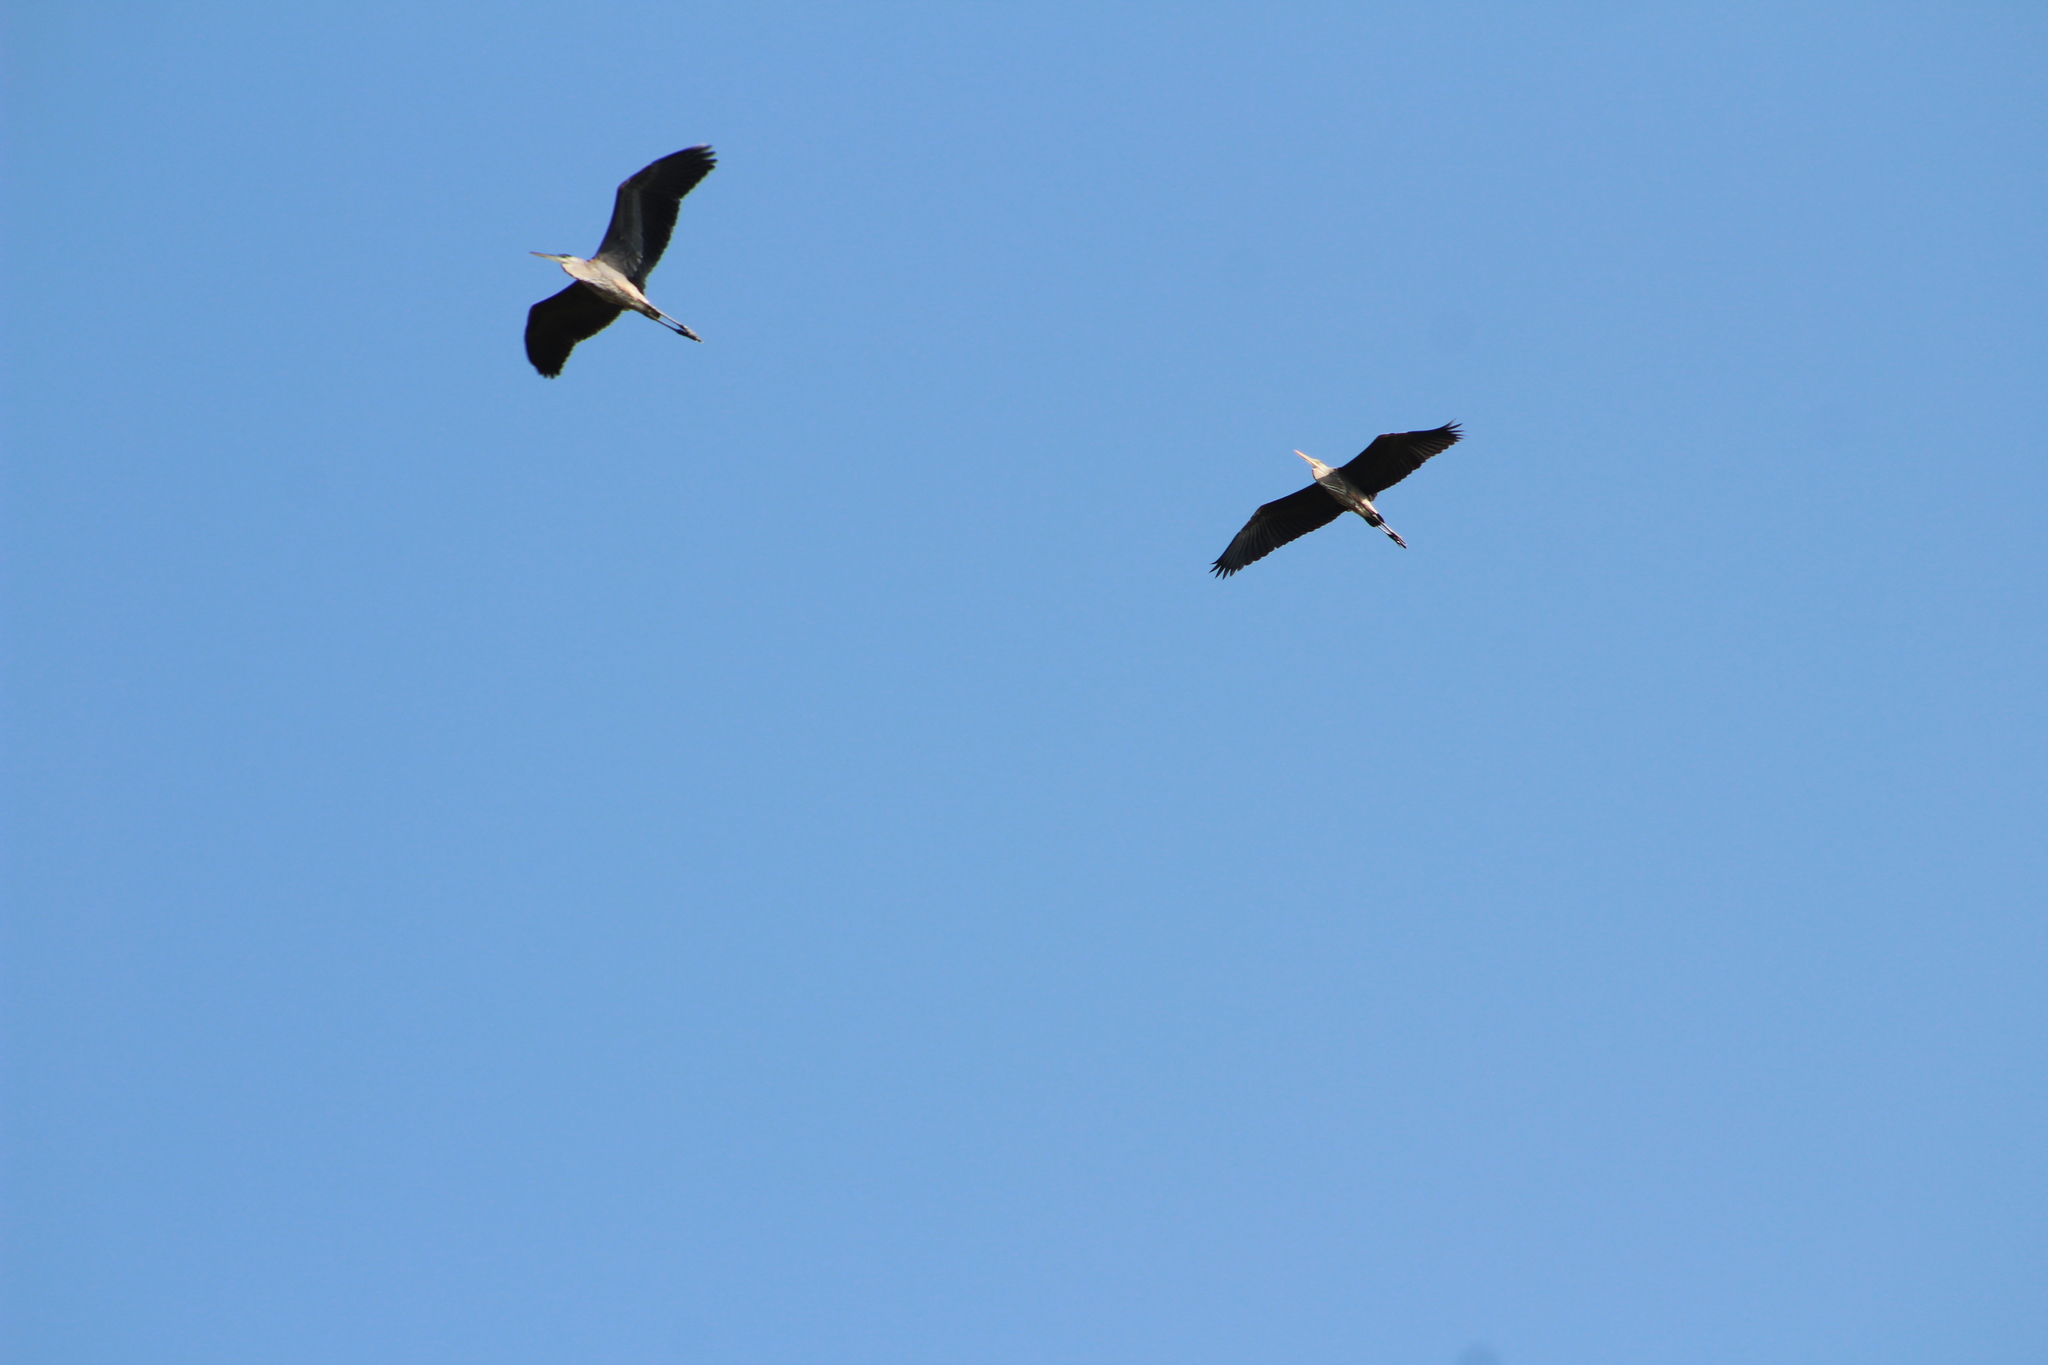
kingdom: Animalia
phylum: Chordata
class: Aves
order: Pelecaniformes
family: Ardeidae
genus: Ardea
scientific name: Ardea herodias
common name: Great blue heron
